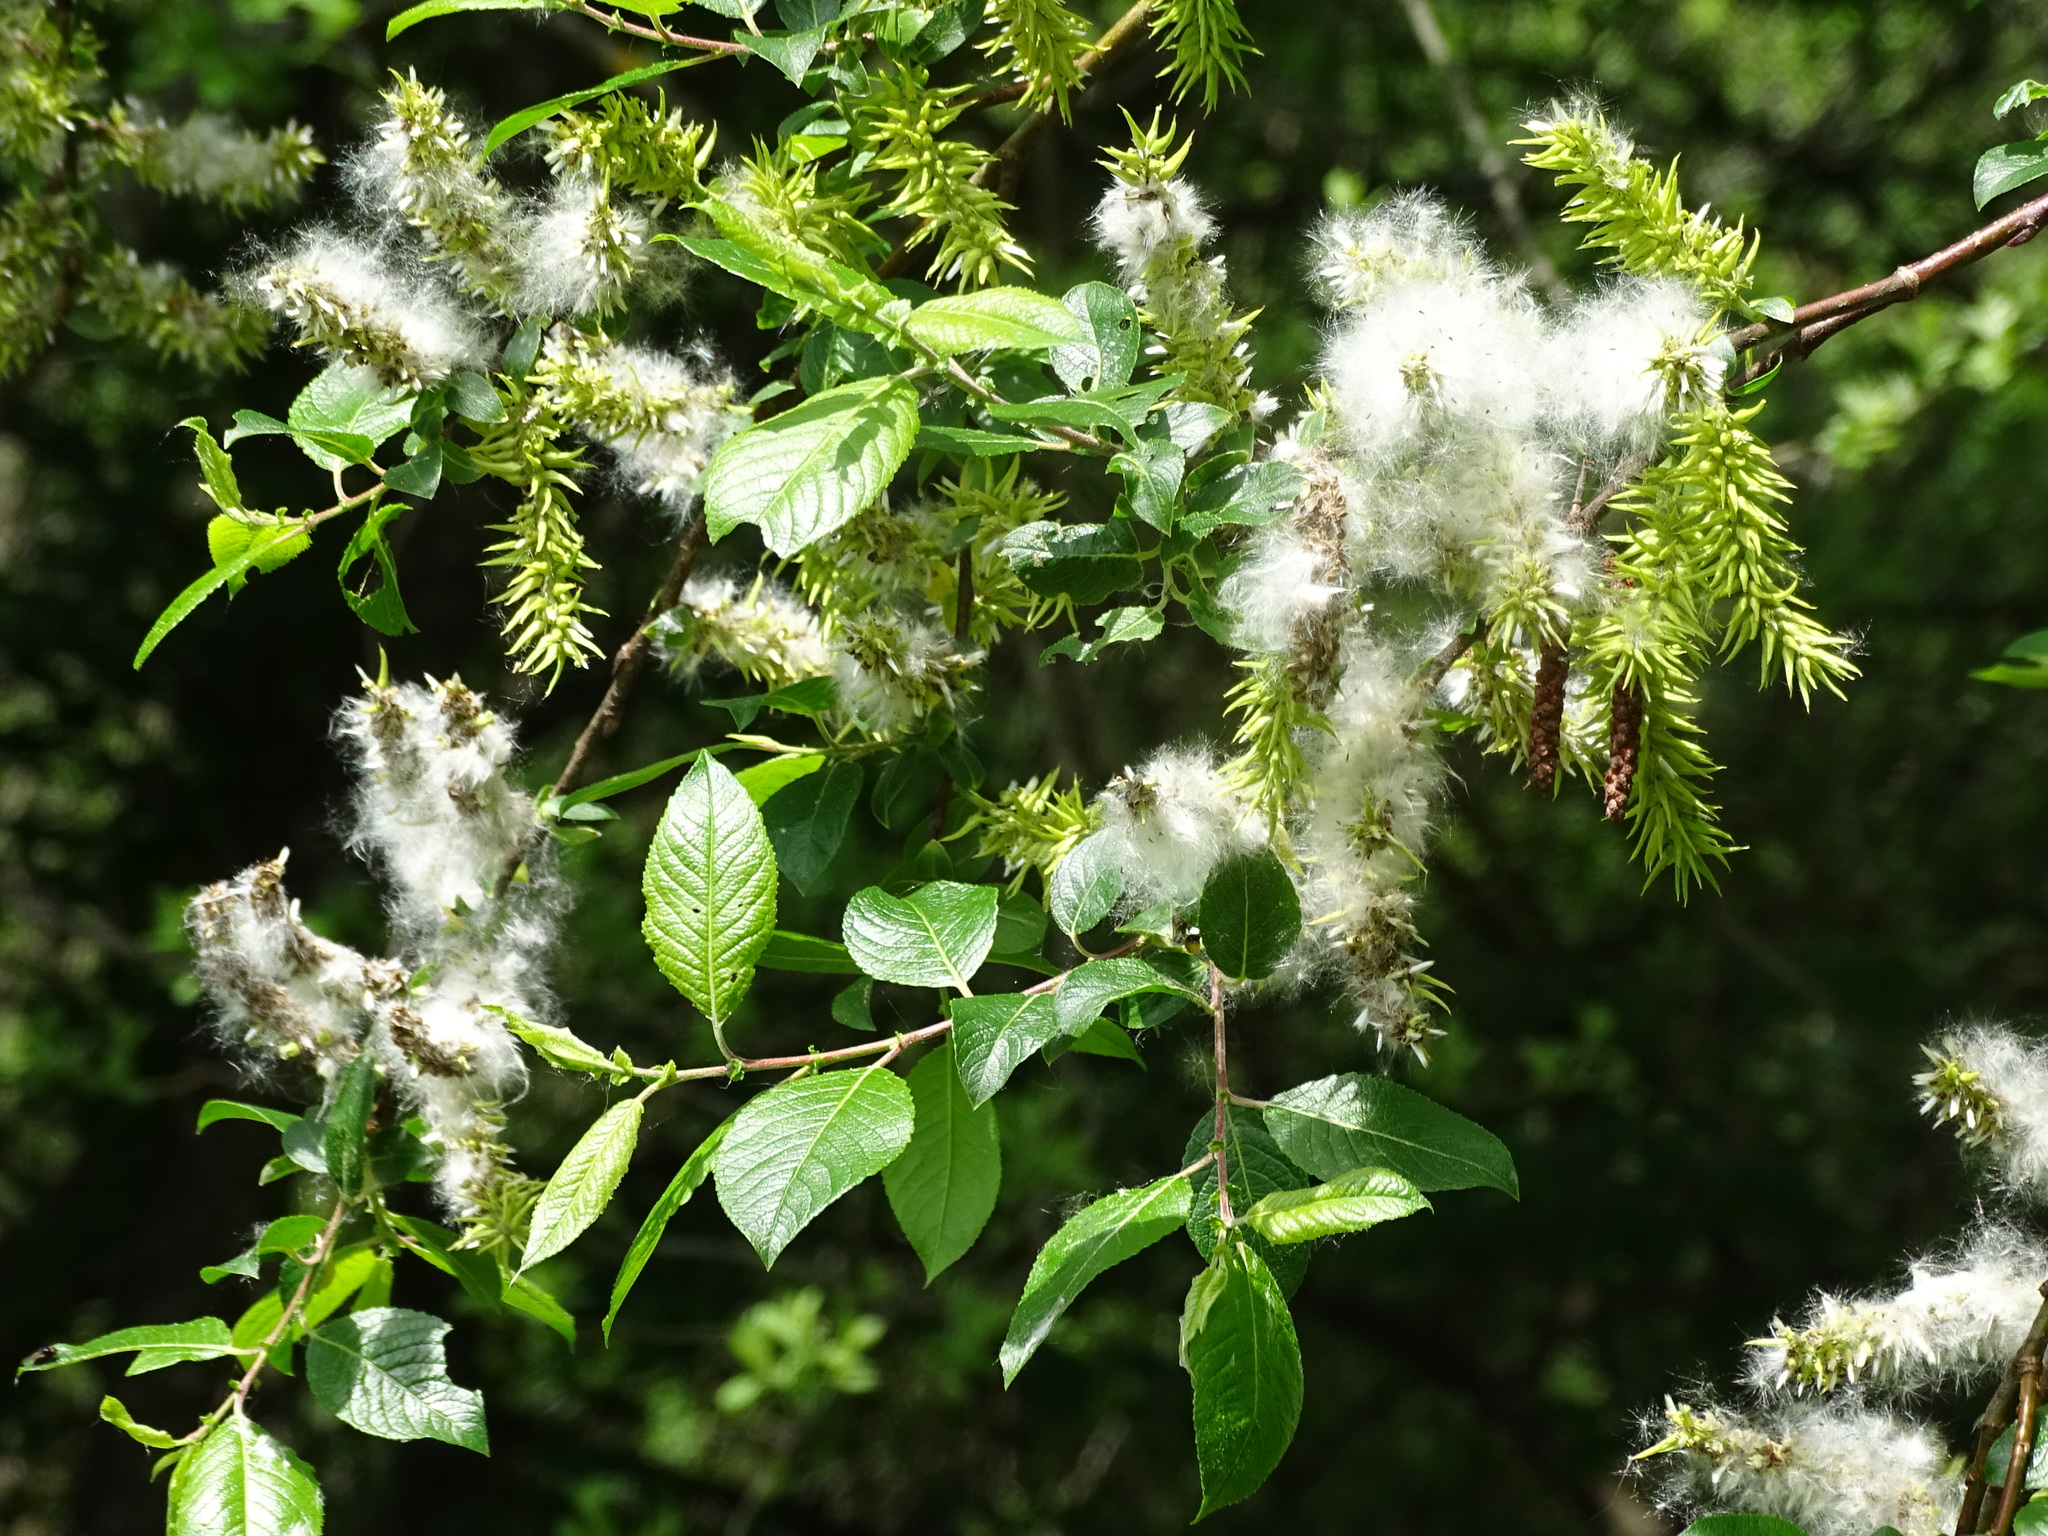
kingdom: Plantae
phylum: Tracheophyta
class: Magnoliopsida
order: Malpighiales
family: Salicaceae
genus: Salix
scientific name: Salix myrsinifolia
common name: Dark-leaved willow
